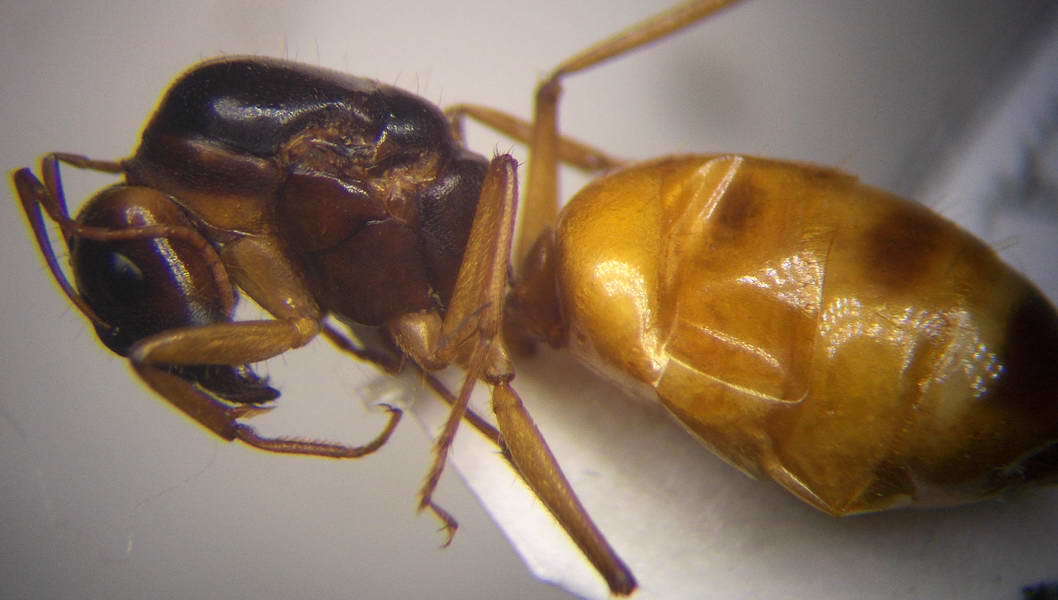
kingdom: Animalia
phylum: Arthropoda
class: Insecta
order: Hymenoptera
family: Formicidae
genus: Camponotus
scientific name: Camponotus fedtschenkoi
